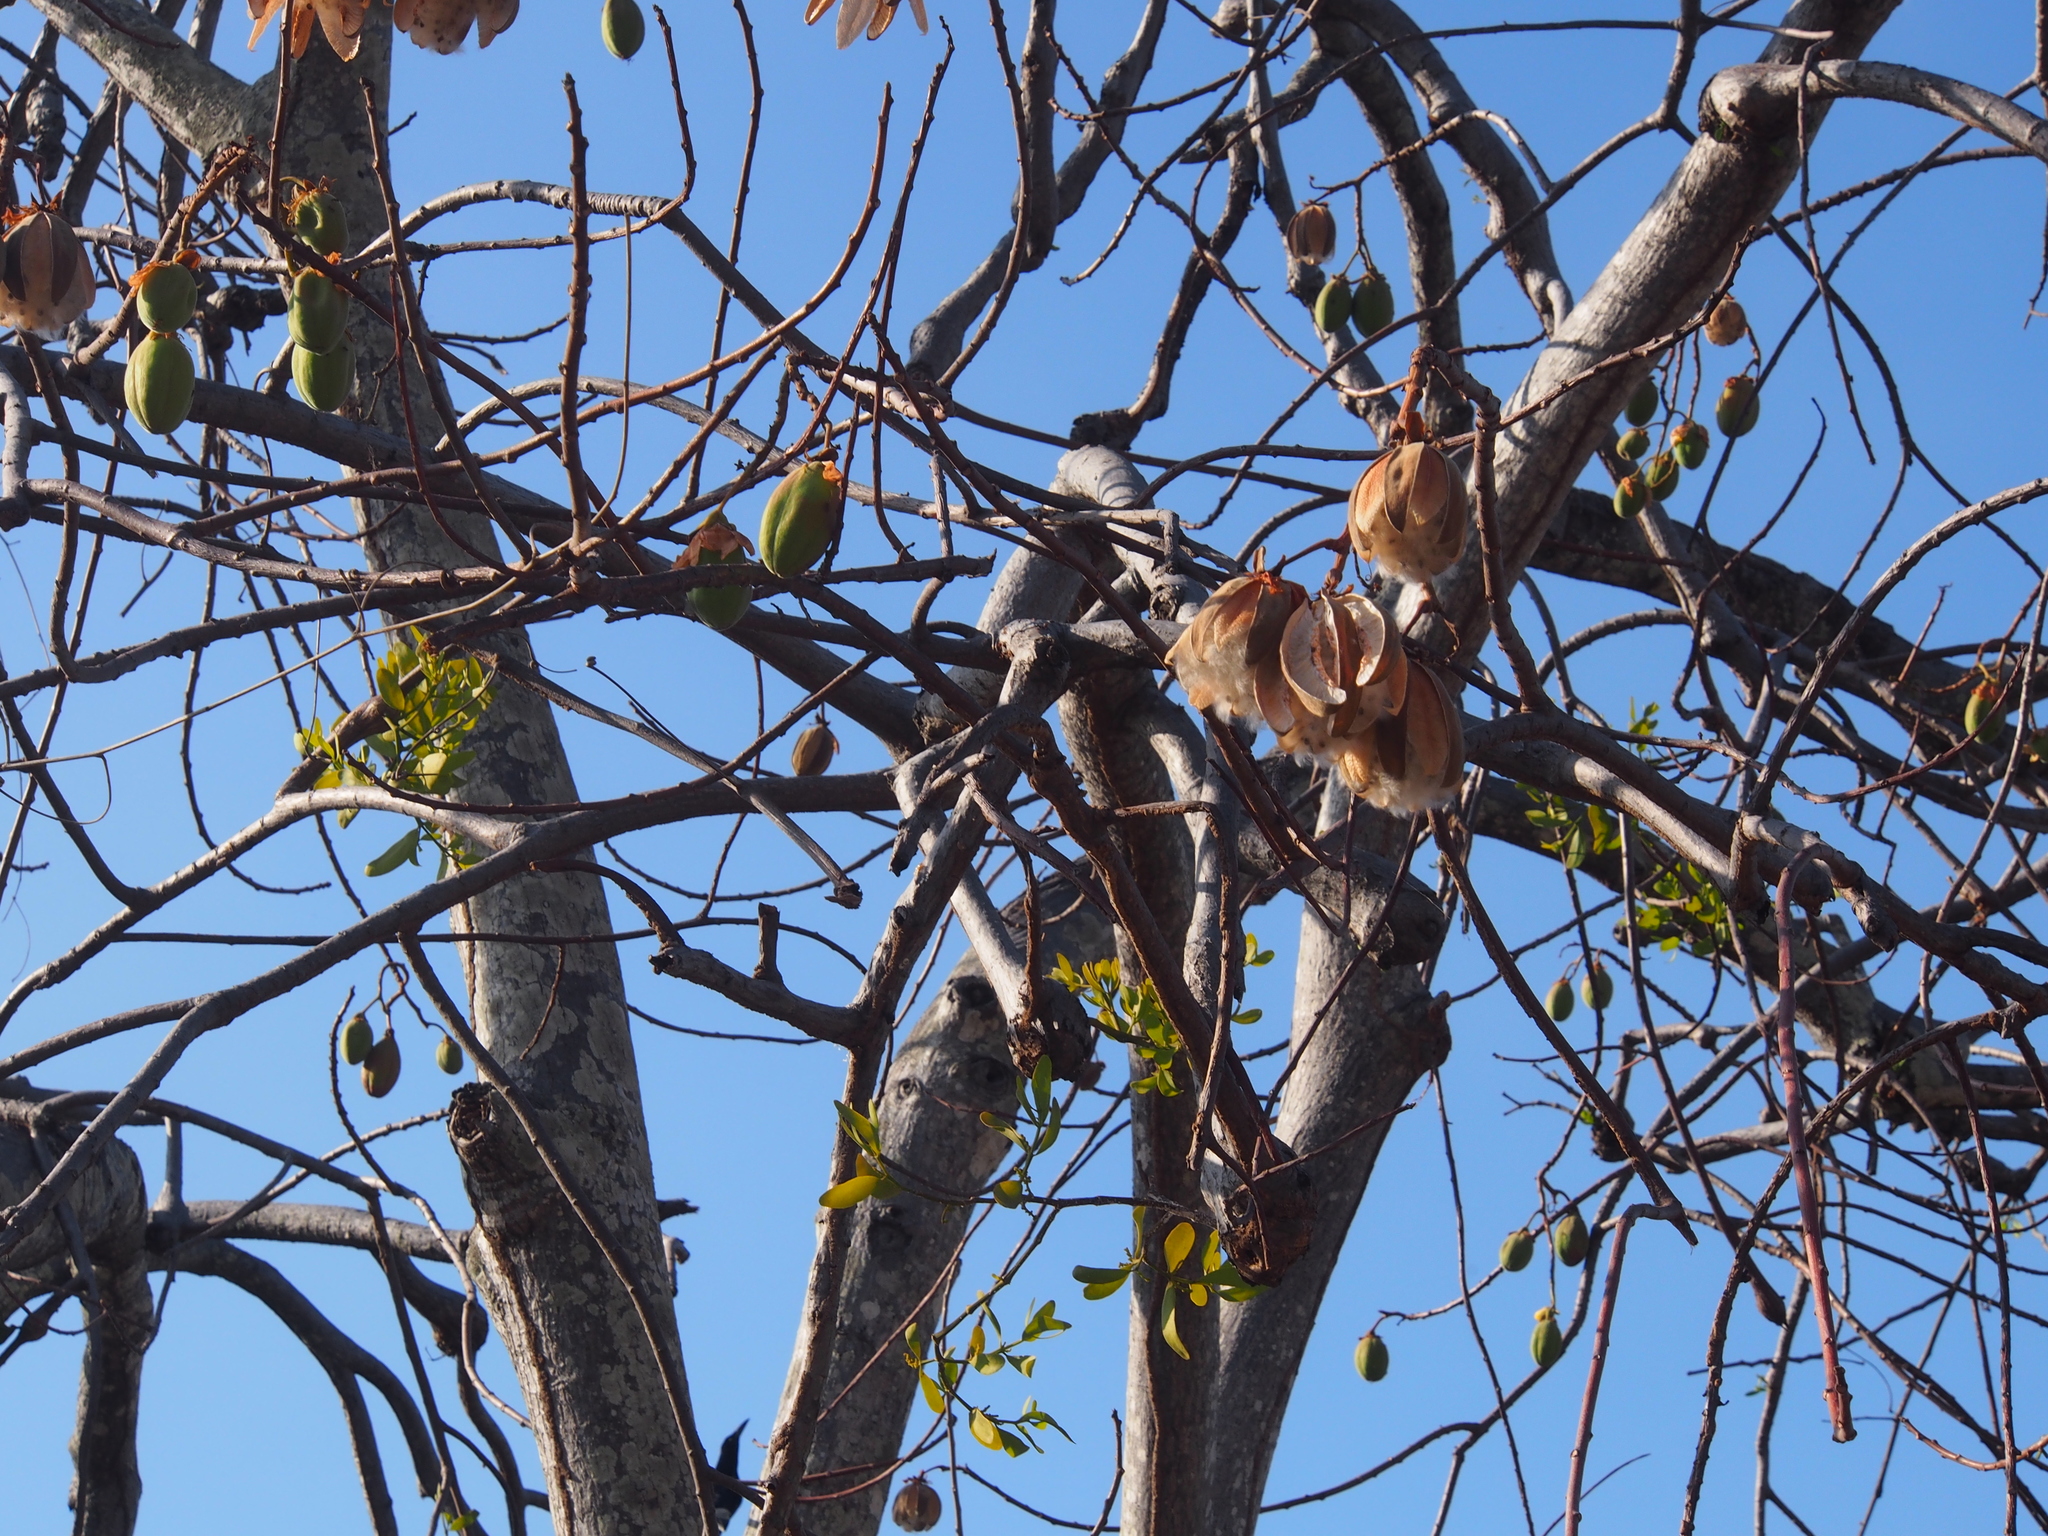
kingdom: Plantae
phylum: Tracheophyta
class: Magnoliopsida
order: Malvales
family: Cochlospermaceae
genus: Cochlospermum
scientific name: Cochlospermum vitifolium
